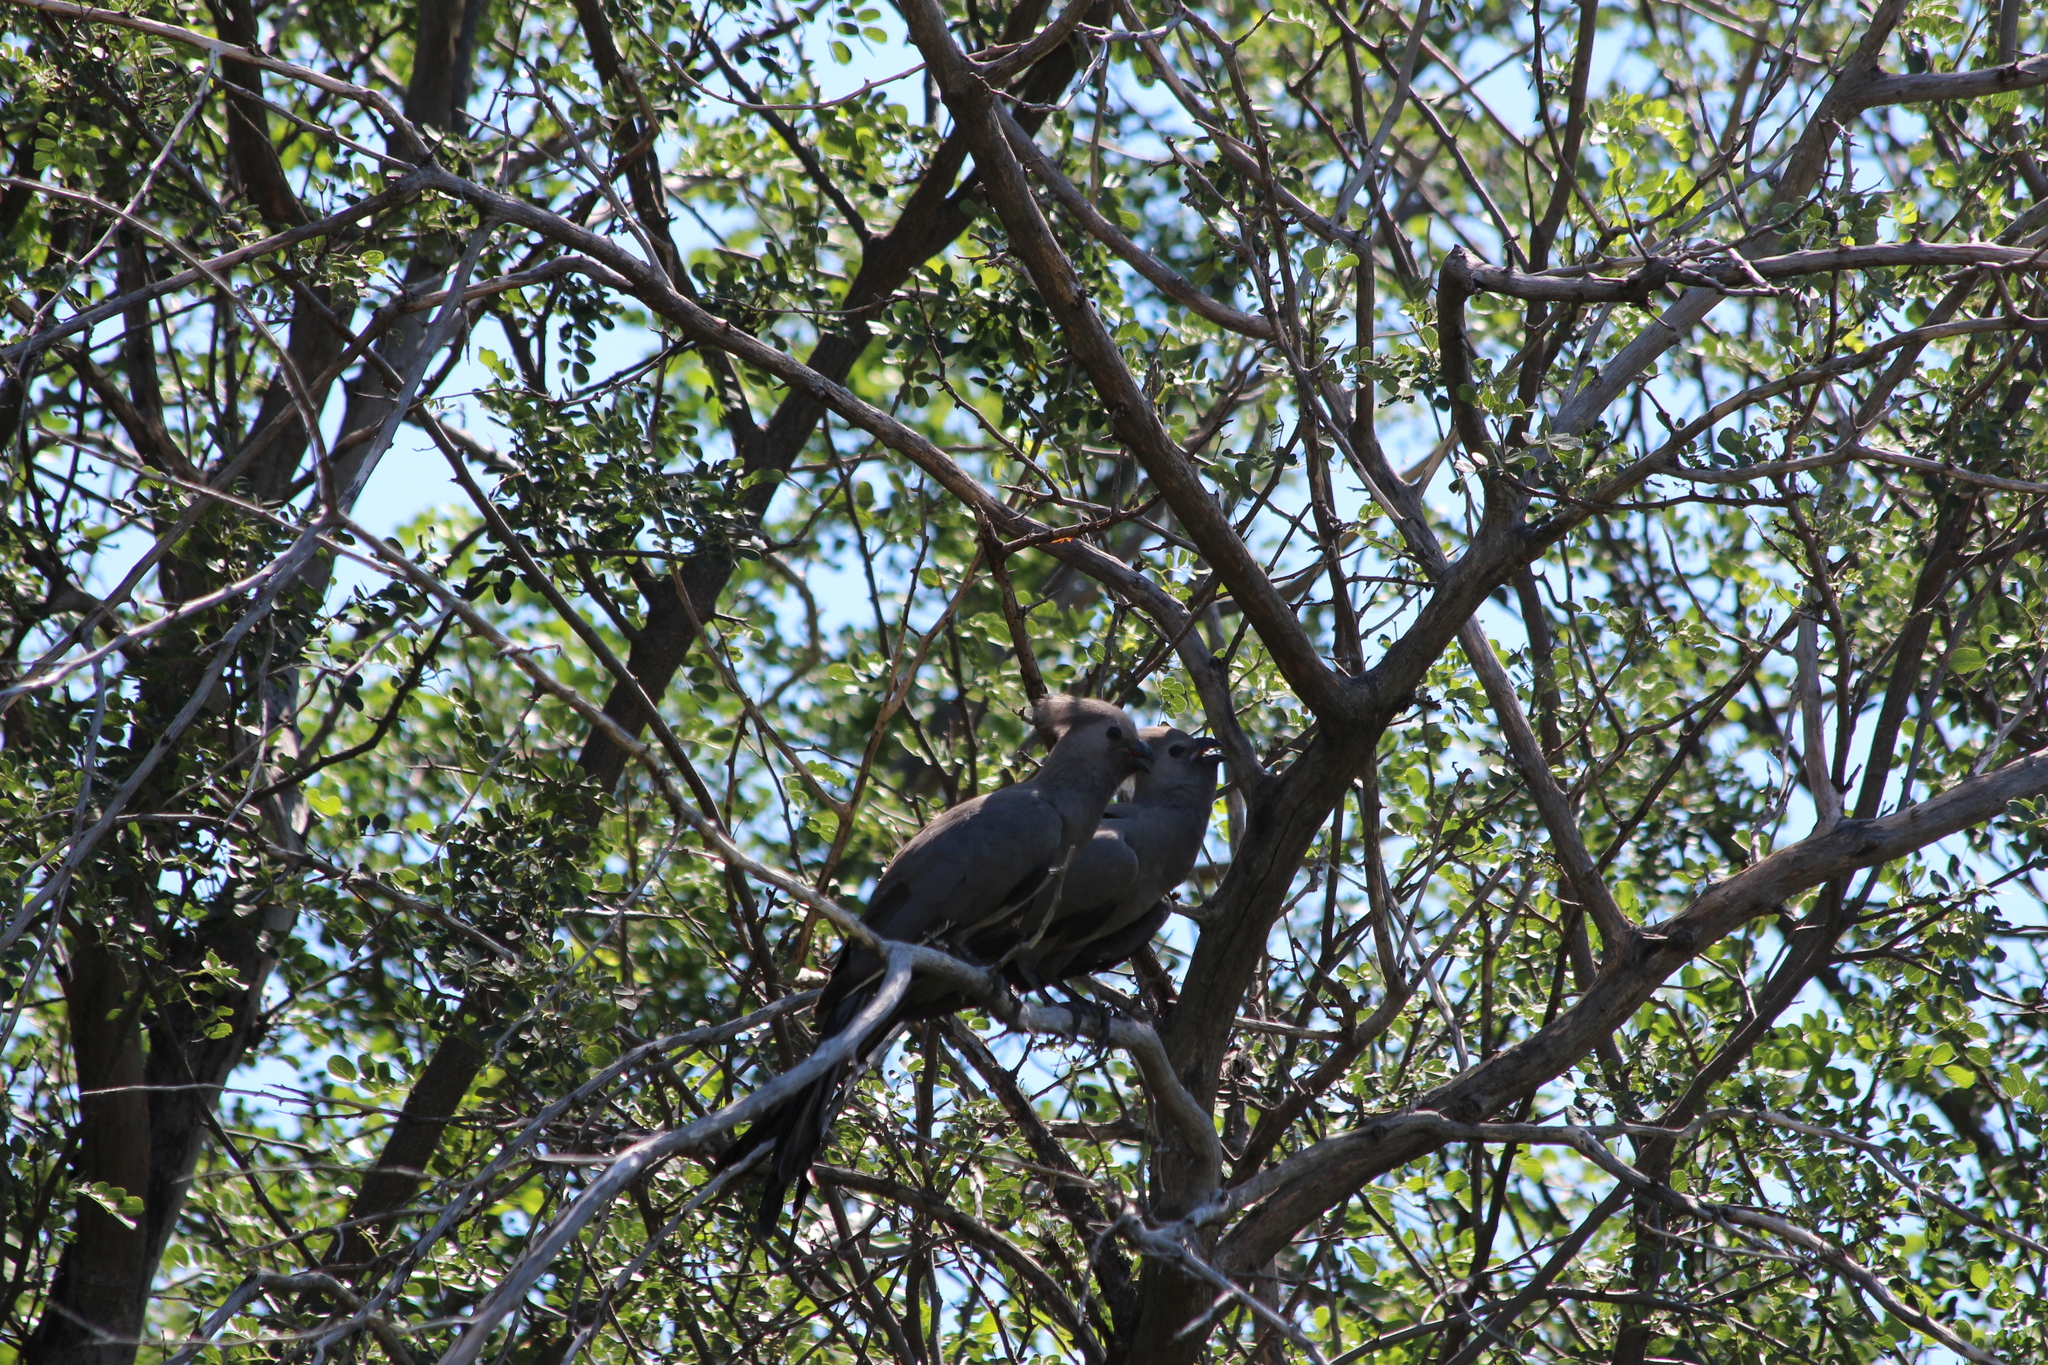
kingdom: Animalia
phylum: Chordata
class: Aves
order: Musophagiformes
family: Musophagidae
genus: Corythaixoides
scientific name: Corythaixoides concolor
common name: Grey go-away-bird
